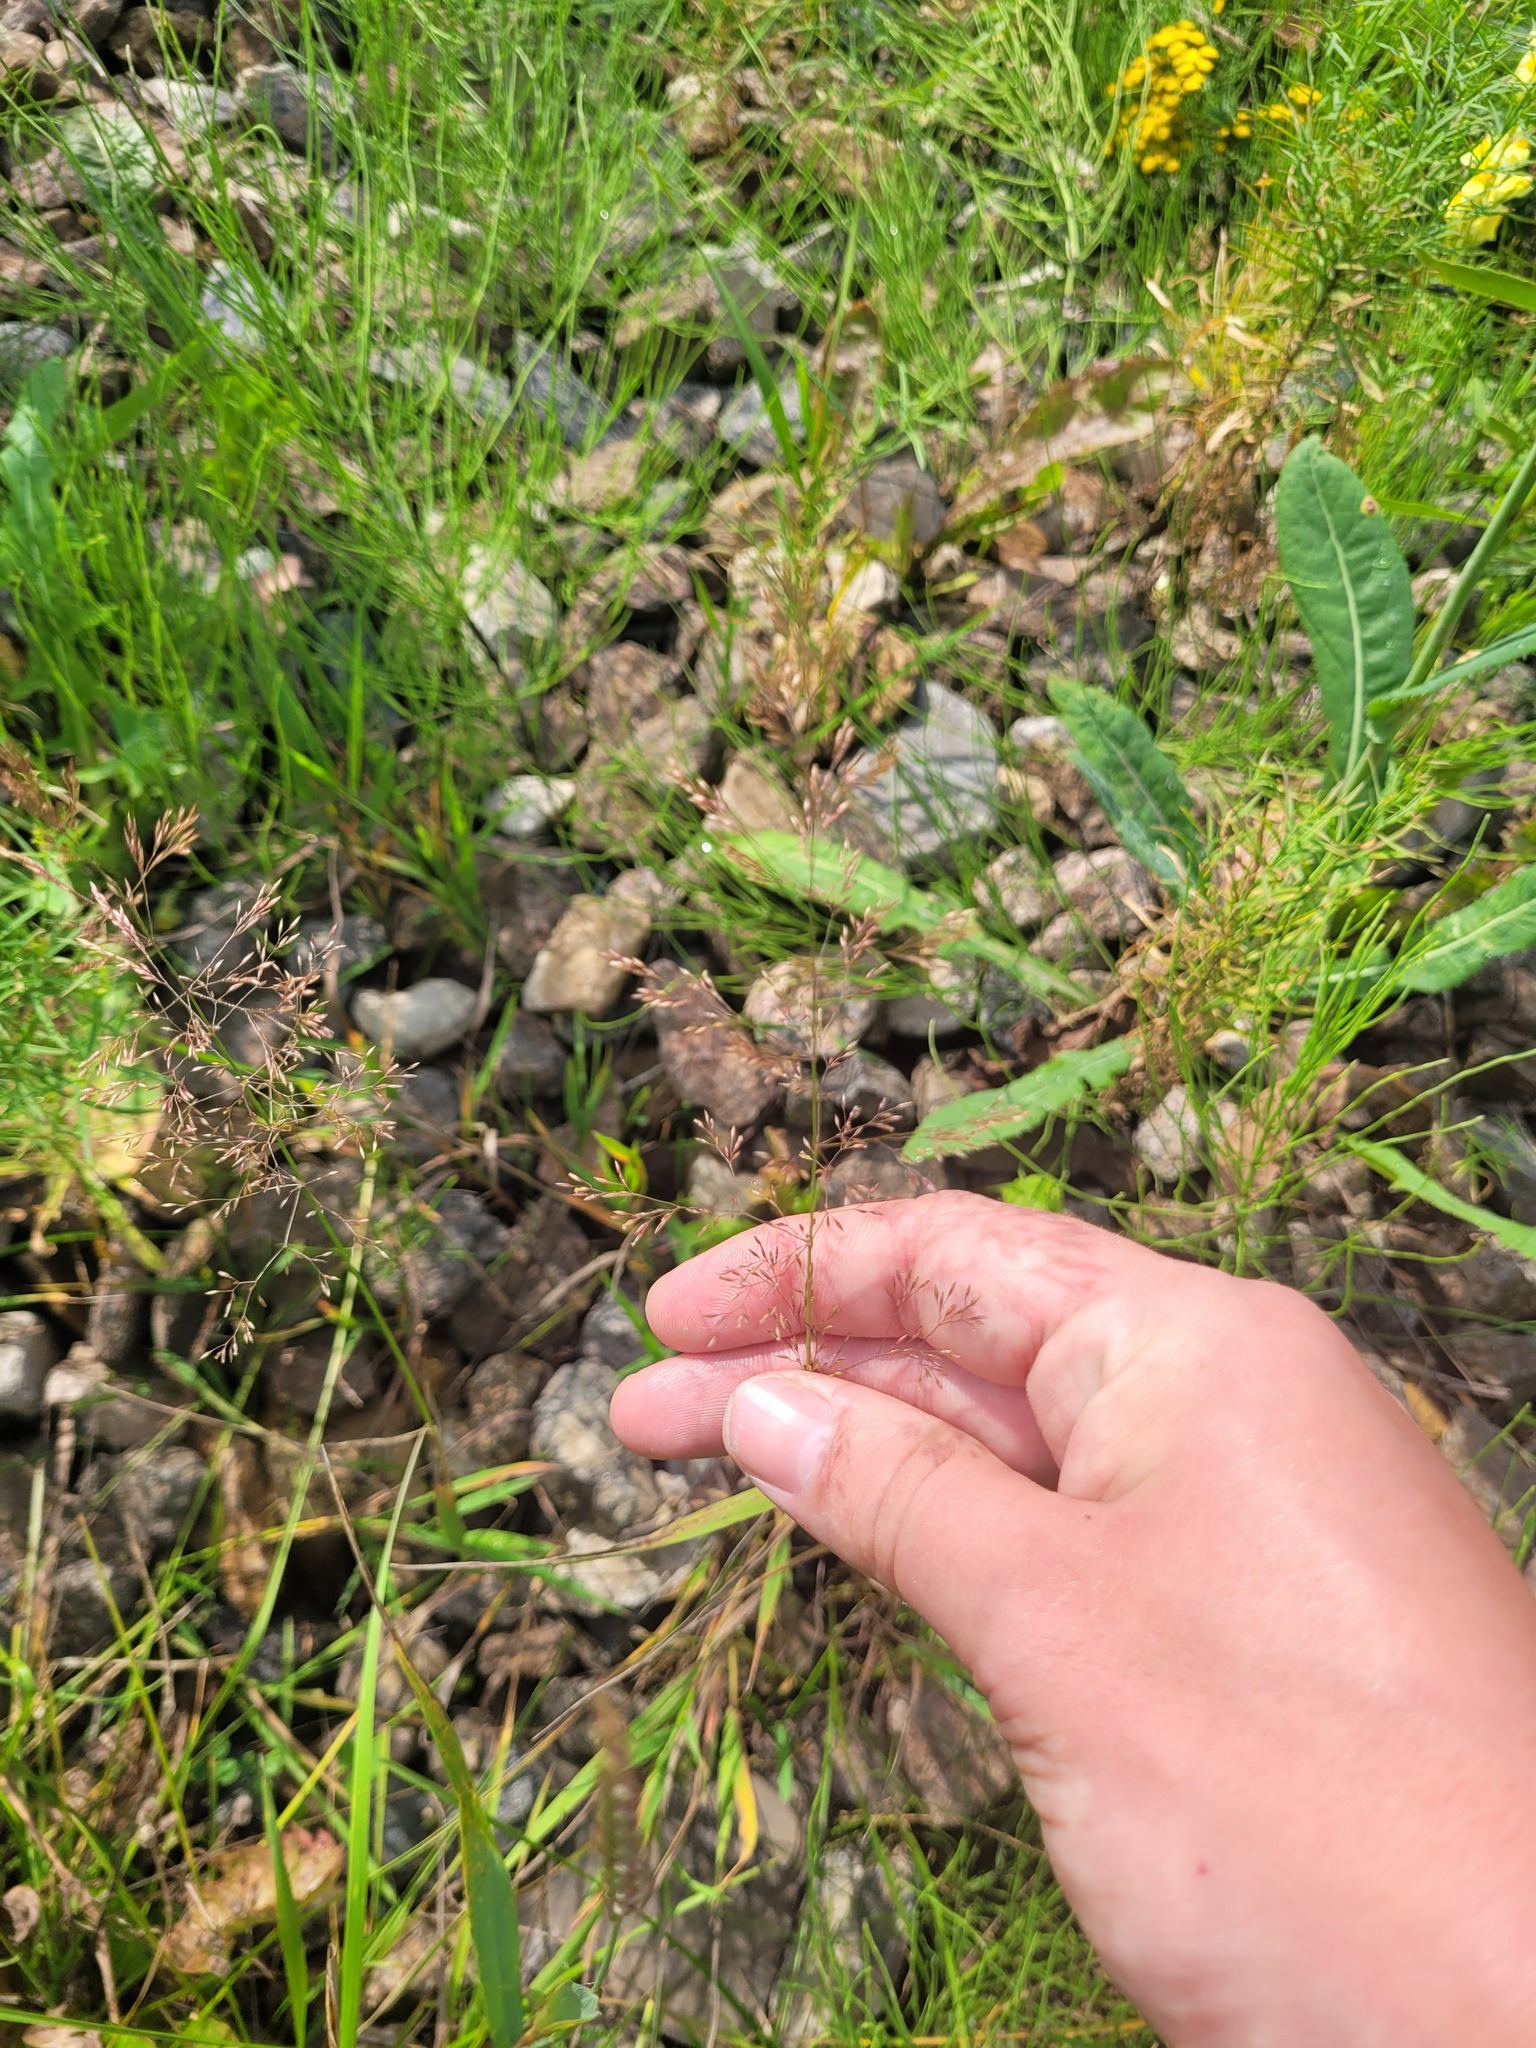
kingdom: Plantae
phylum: Tracheophyta
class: Liliopsida
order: Poales
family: Poaceae
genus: Agrostis
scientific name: Agrostis capillaris
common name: Colonial bentgrass
